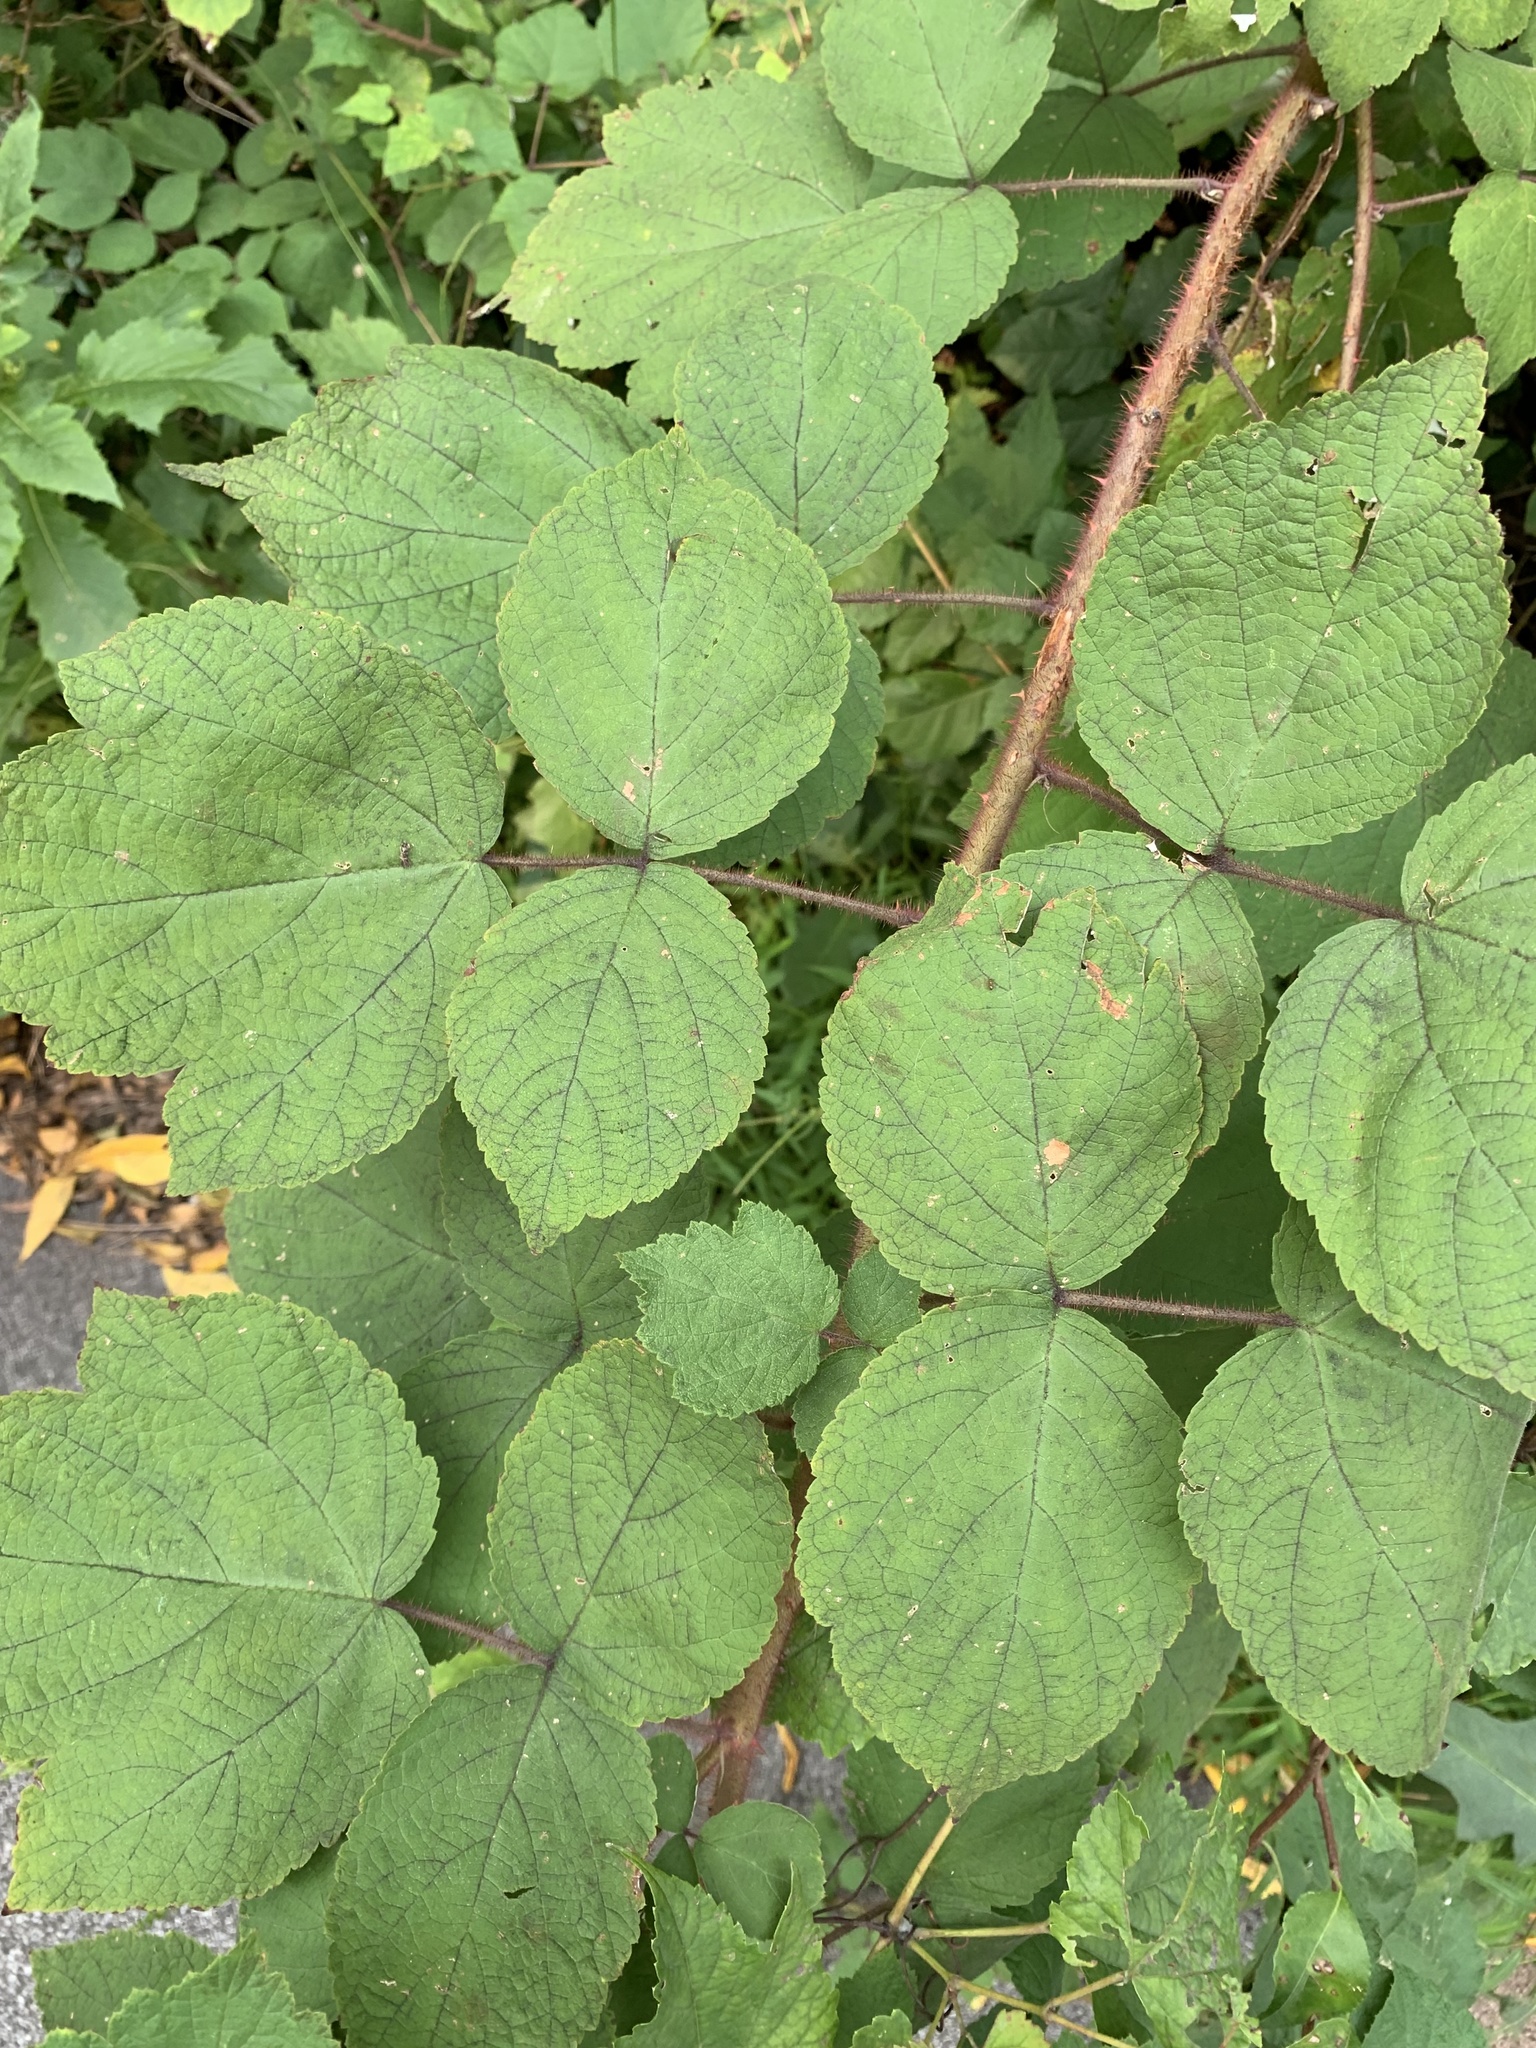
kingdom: Plantae
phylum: Tracheophyta
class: Magnoliopsida
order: Rosales
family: Rosaceae
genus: Rubus
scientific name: Rubus phoenicolasius
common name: Japanese wineberry
